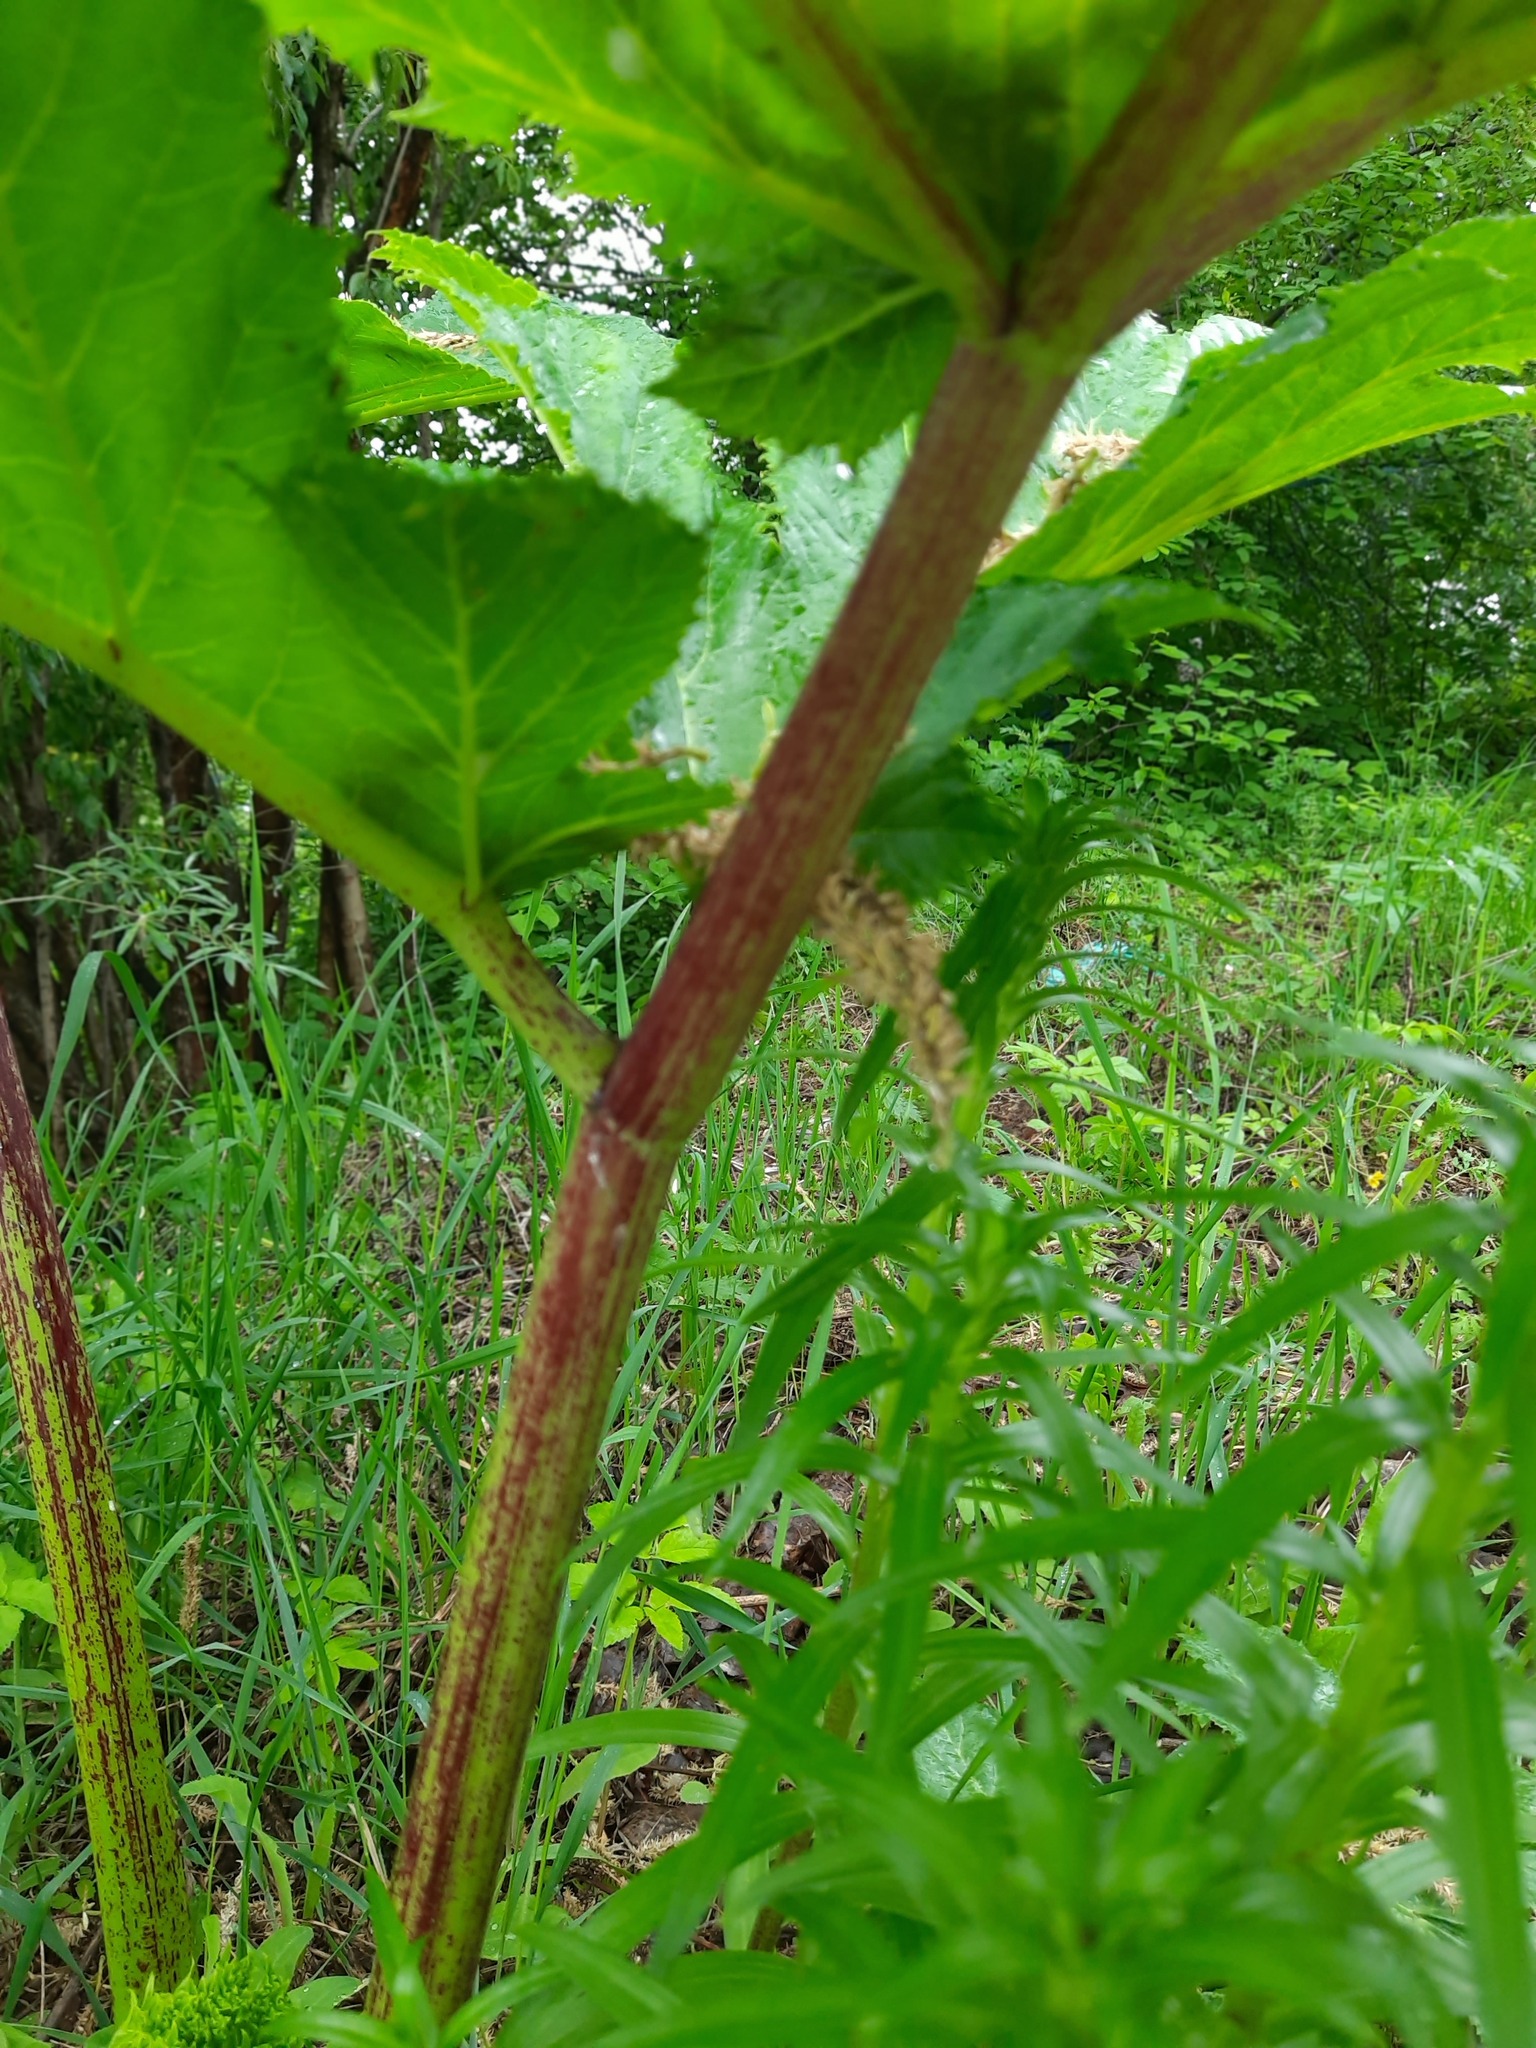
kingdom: Plantae
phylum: Tracheophyta
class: Magnoliopsida
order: Apiales
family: Apiaceae
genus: Heracleum
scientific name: Heracleum sosnowskyi
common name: Sosnowsky's hogweed
